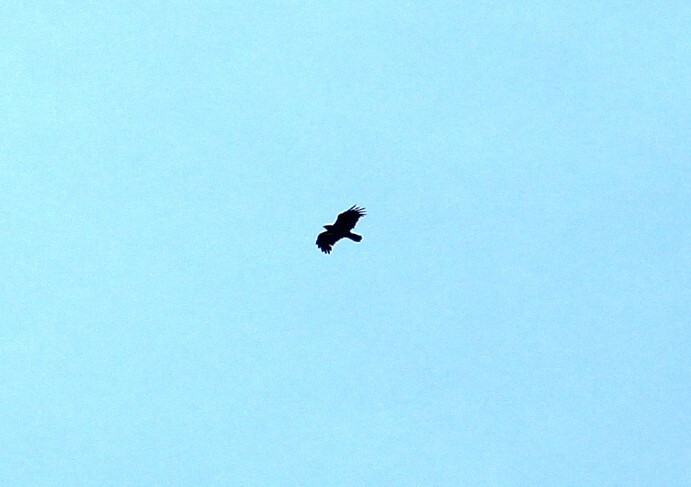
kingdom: Animalia
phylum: Chordata
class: Aves
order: Passeriformes
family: Corvidae
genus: Corvus
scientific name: Corvus corax
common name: Common raven
